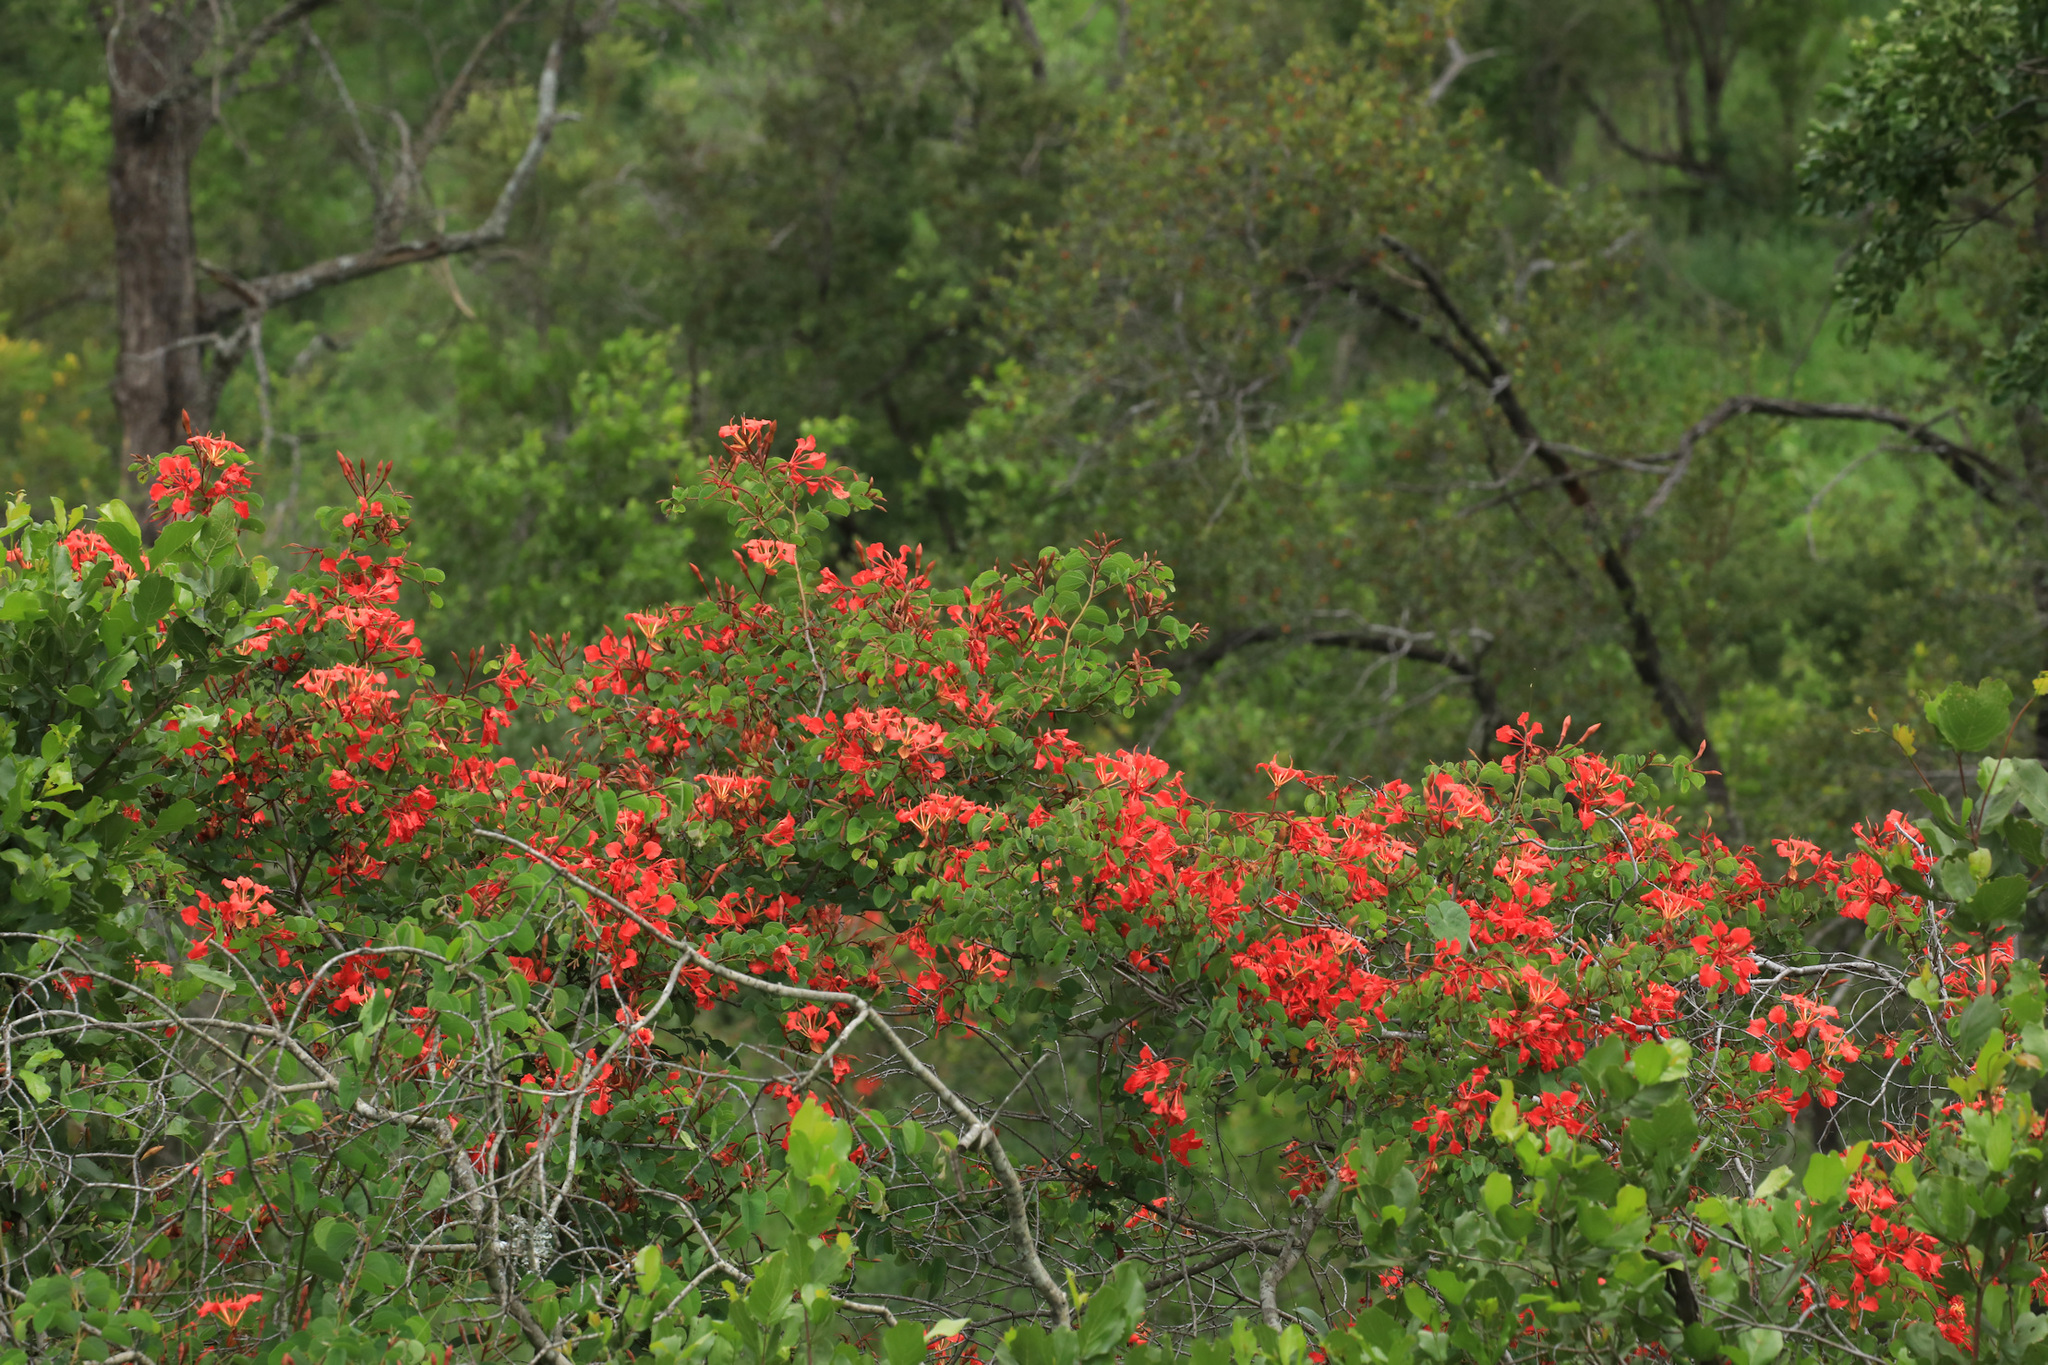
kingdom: Plantae
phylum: Tracheophyta
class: Magnoliopsida
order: Fabales
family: Fabaceae
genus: Bauhinia
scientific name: Bauhinia galpinii
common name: African plume
